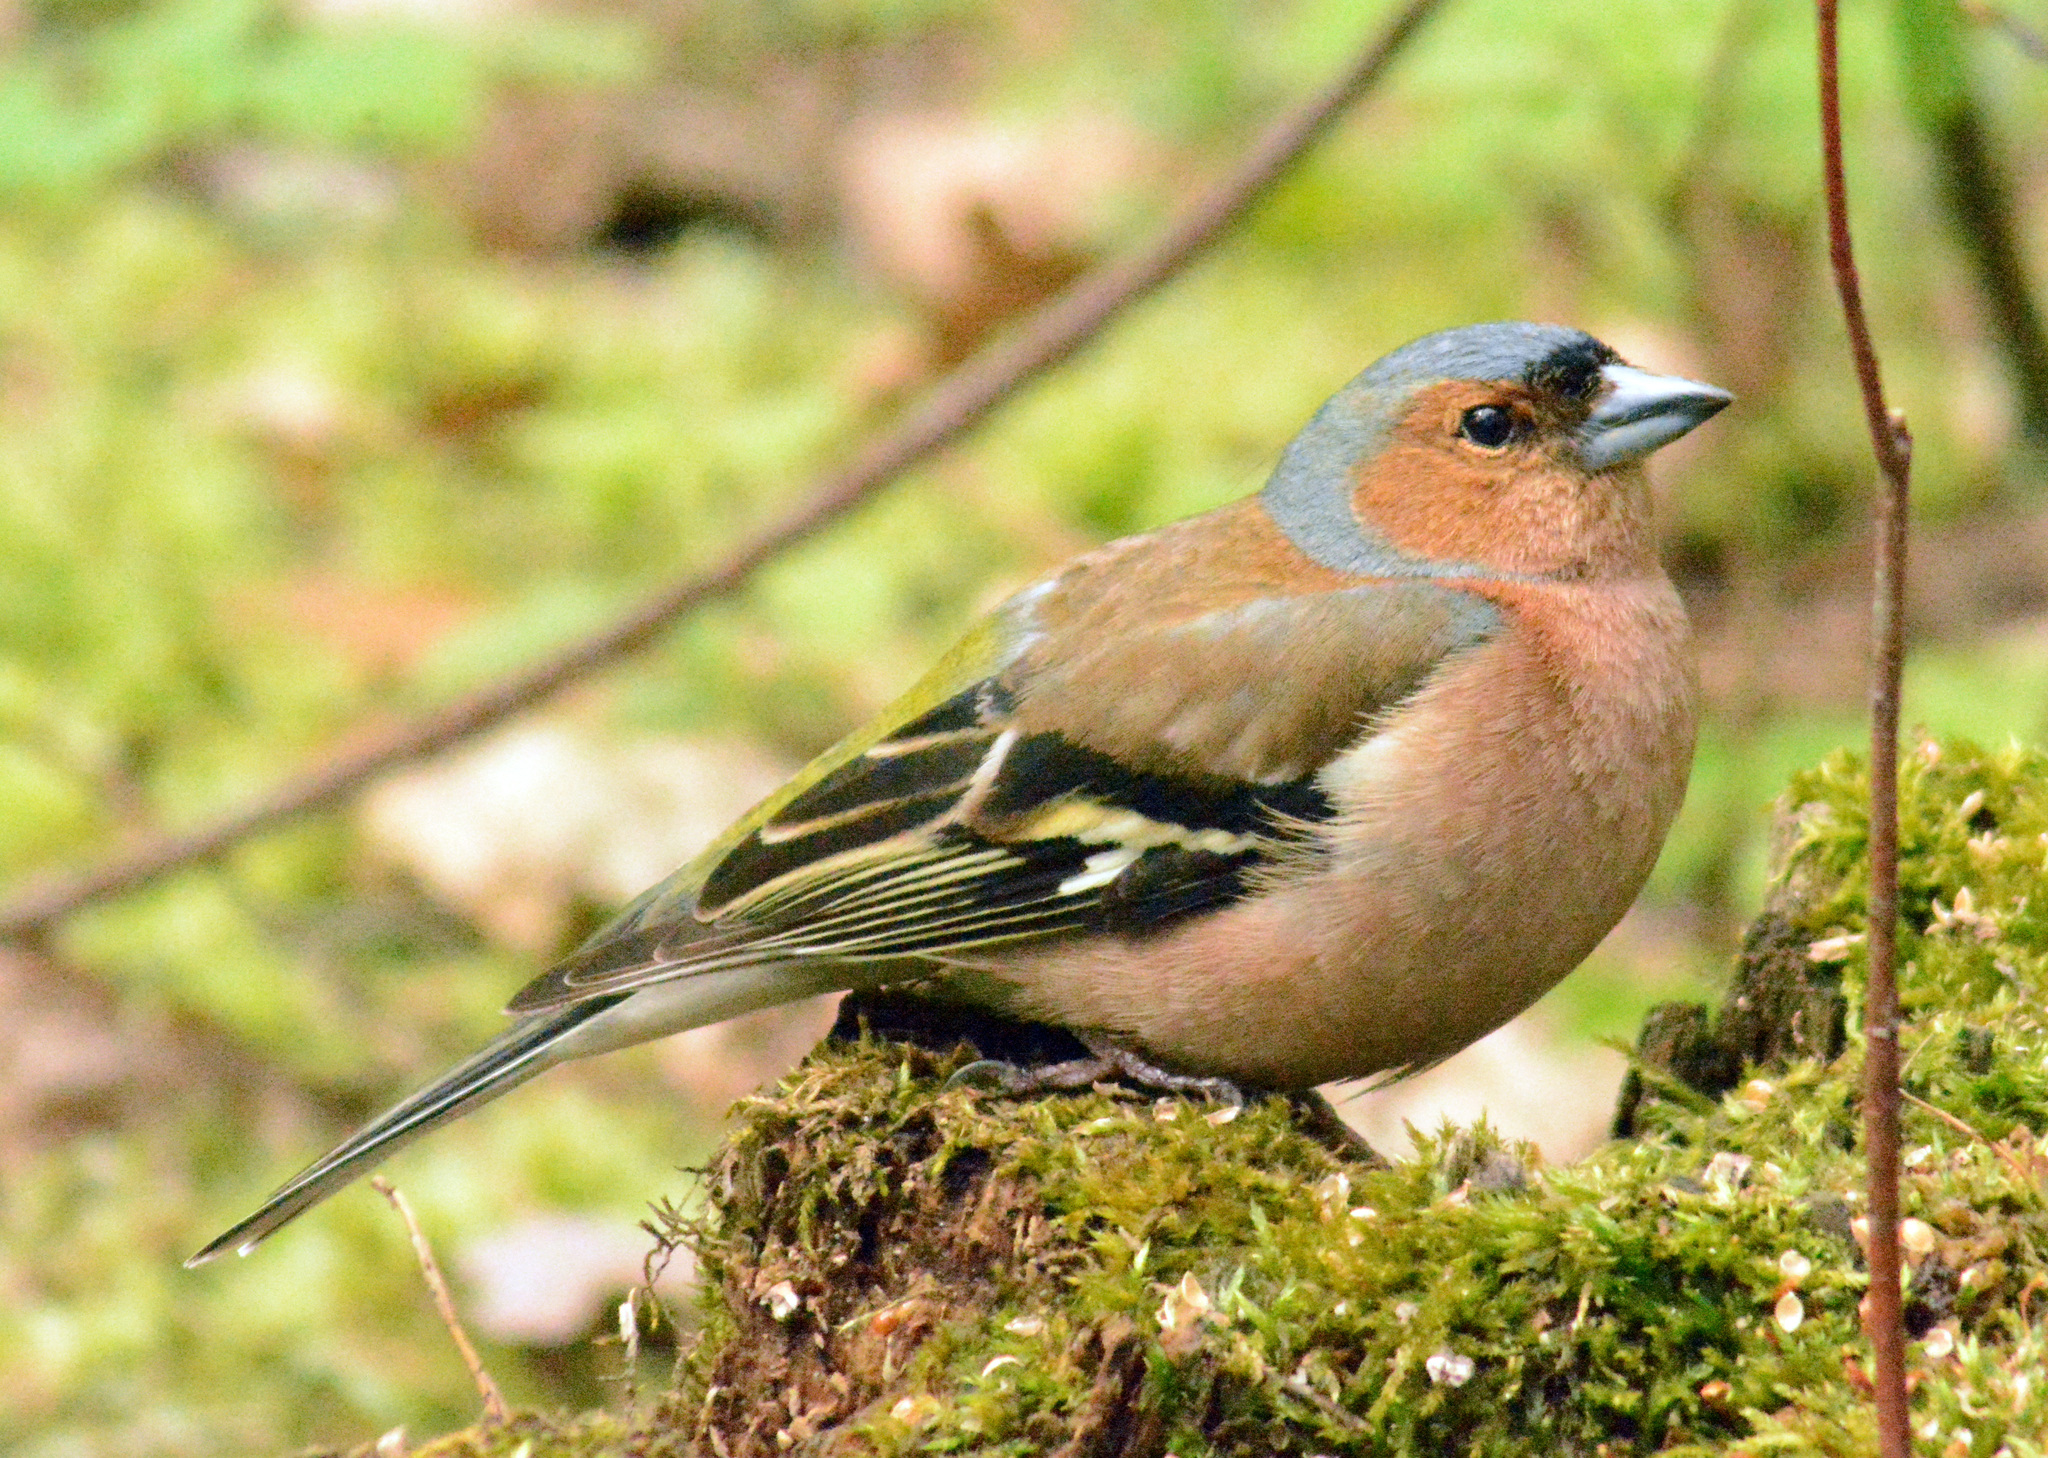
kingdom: Animalia
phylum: Chordata
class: Aves
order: Passeriformes
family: Fringillidae
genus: Fringilla
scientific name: Fringilla coelebs
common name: Common chaffinch
